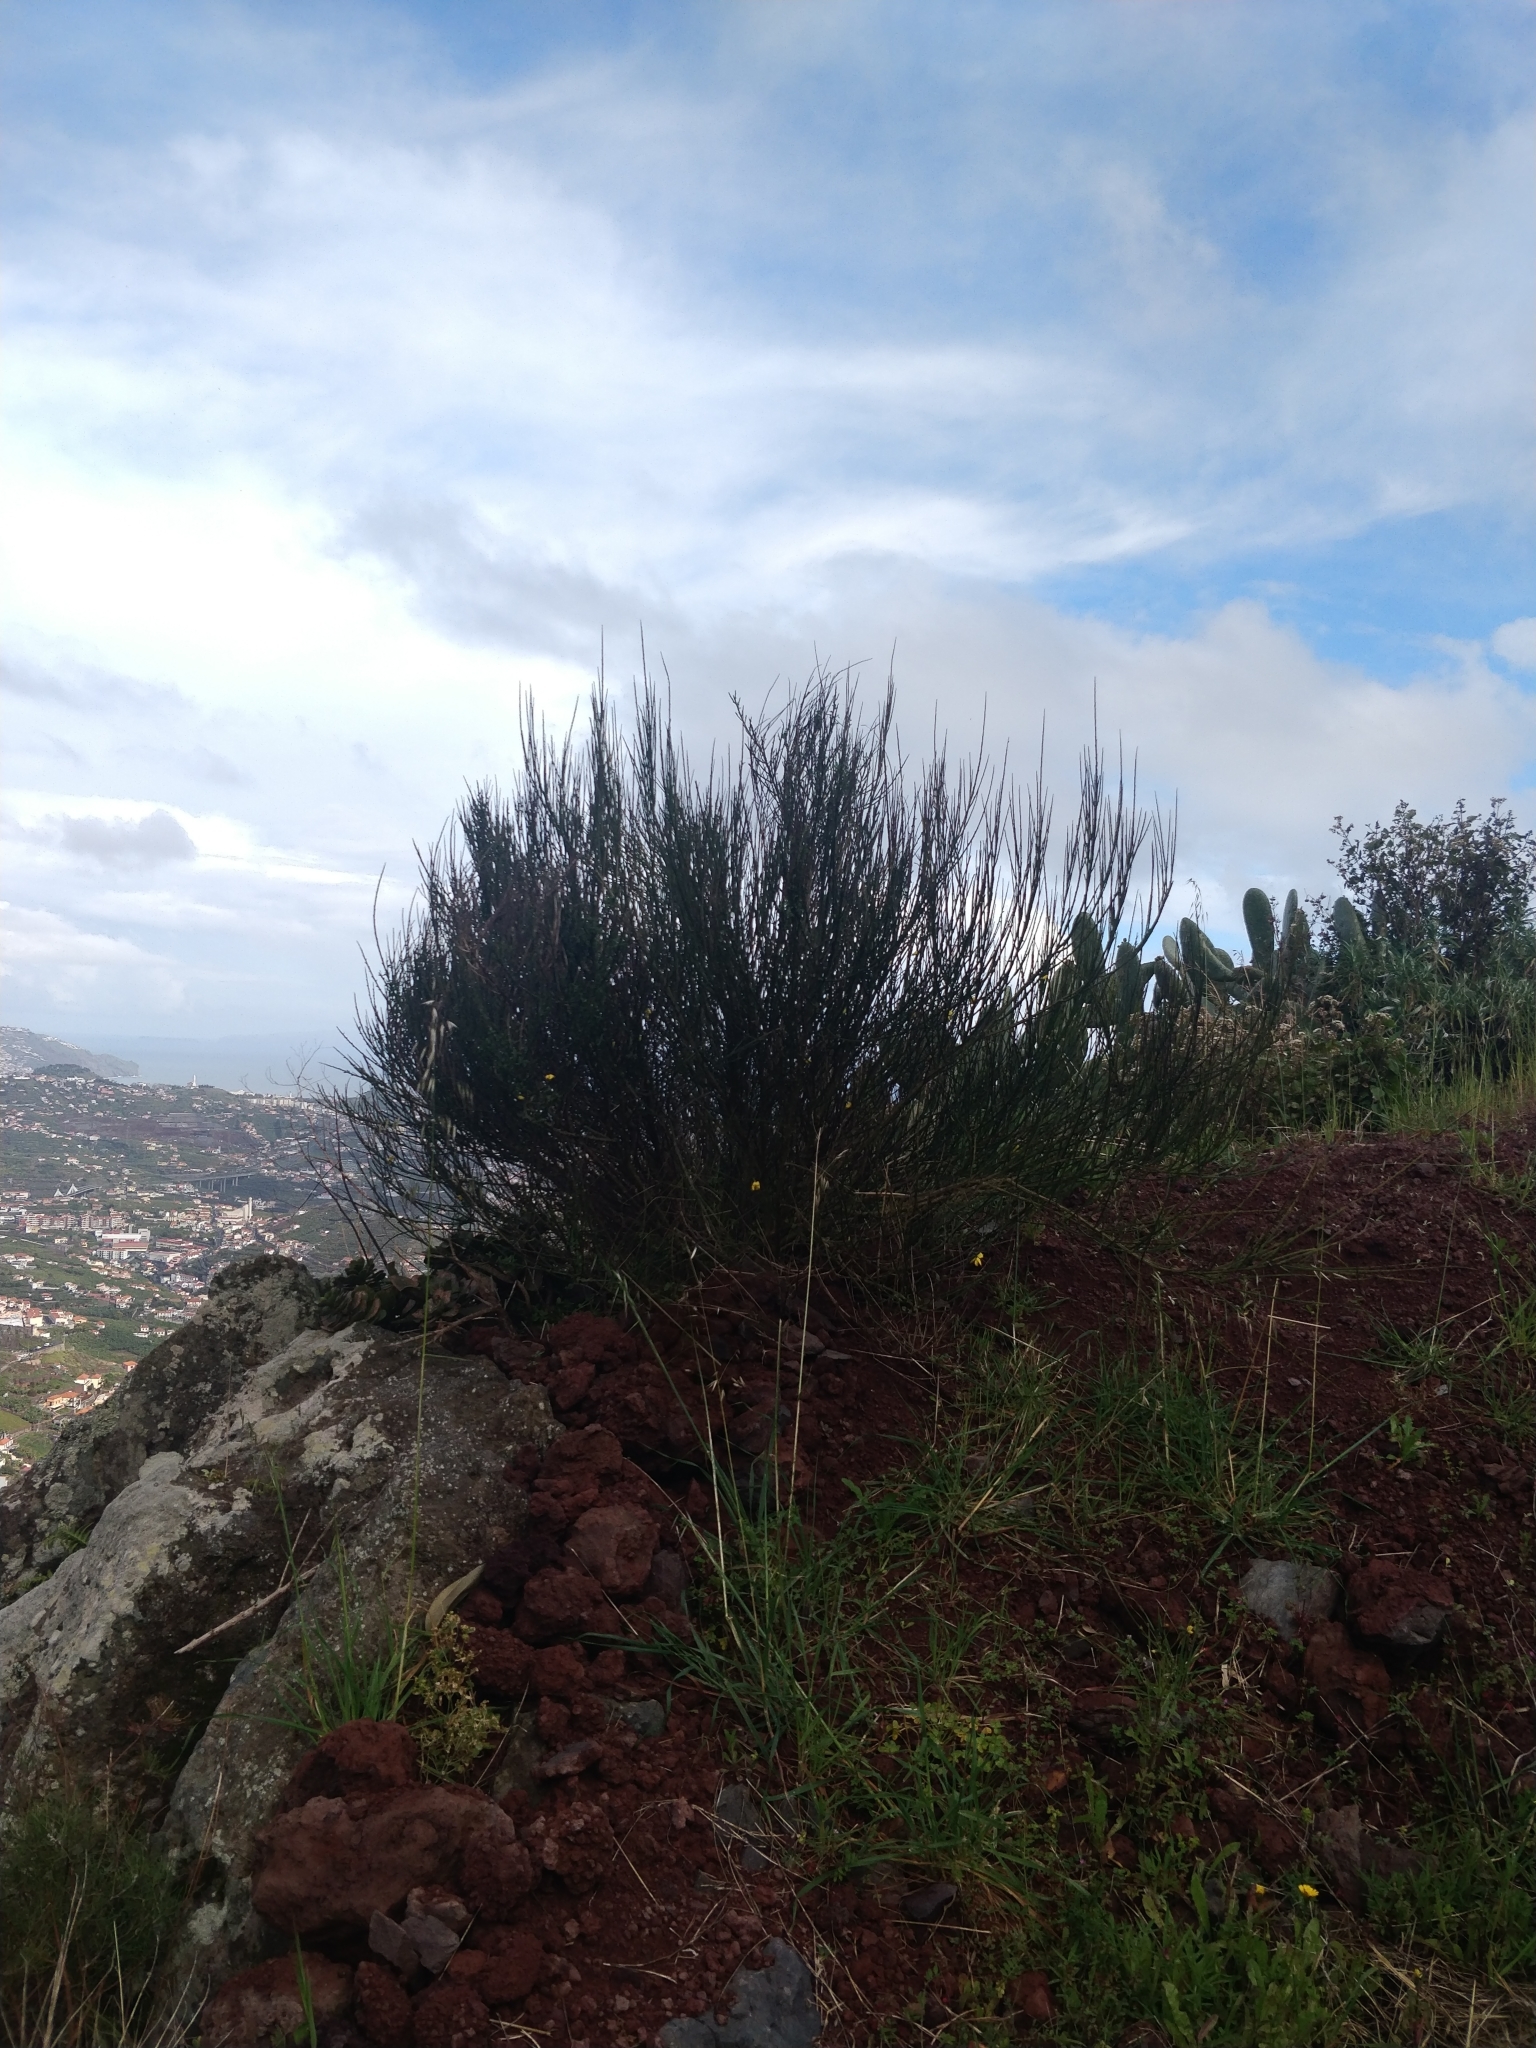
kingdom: Plantae
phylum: Tracheophyta
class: Magnoliopsida
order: Fabales
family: Fabaceae
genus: Cytisus
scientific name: Cytisus scoparius
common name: Scotch broom
